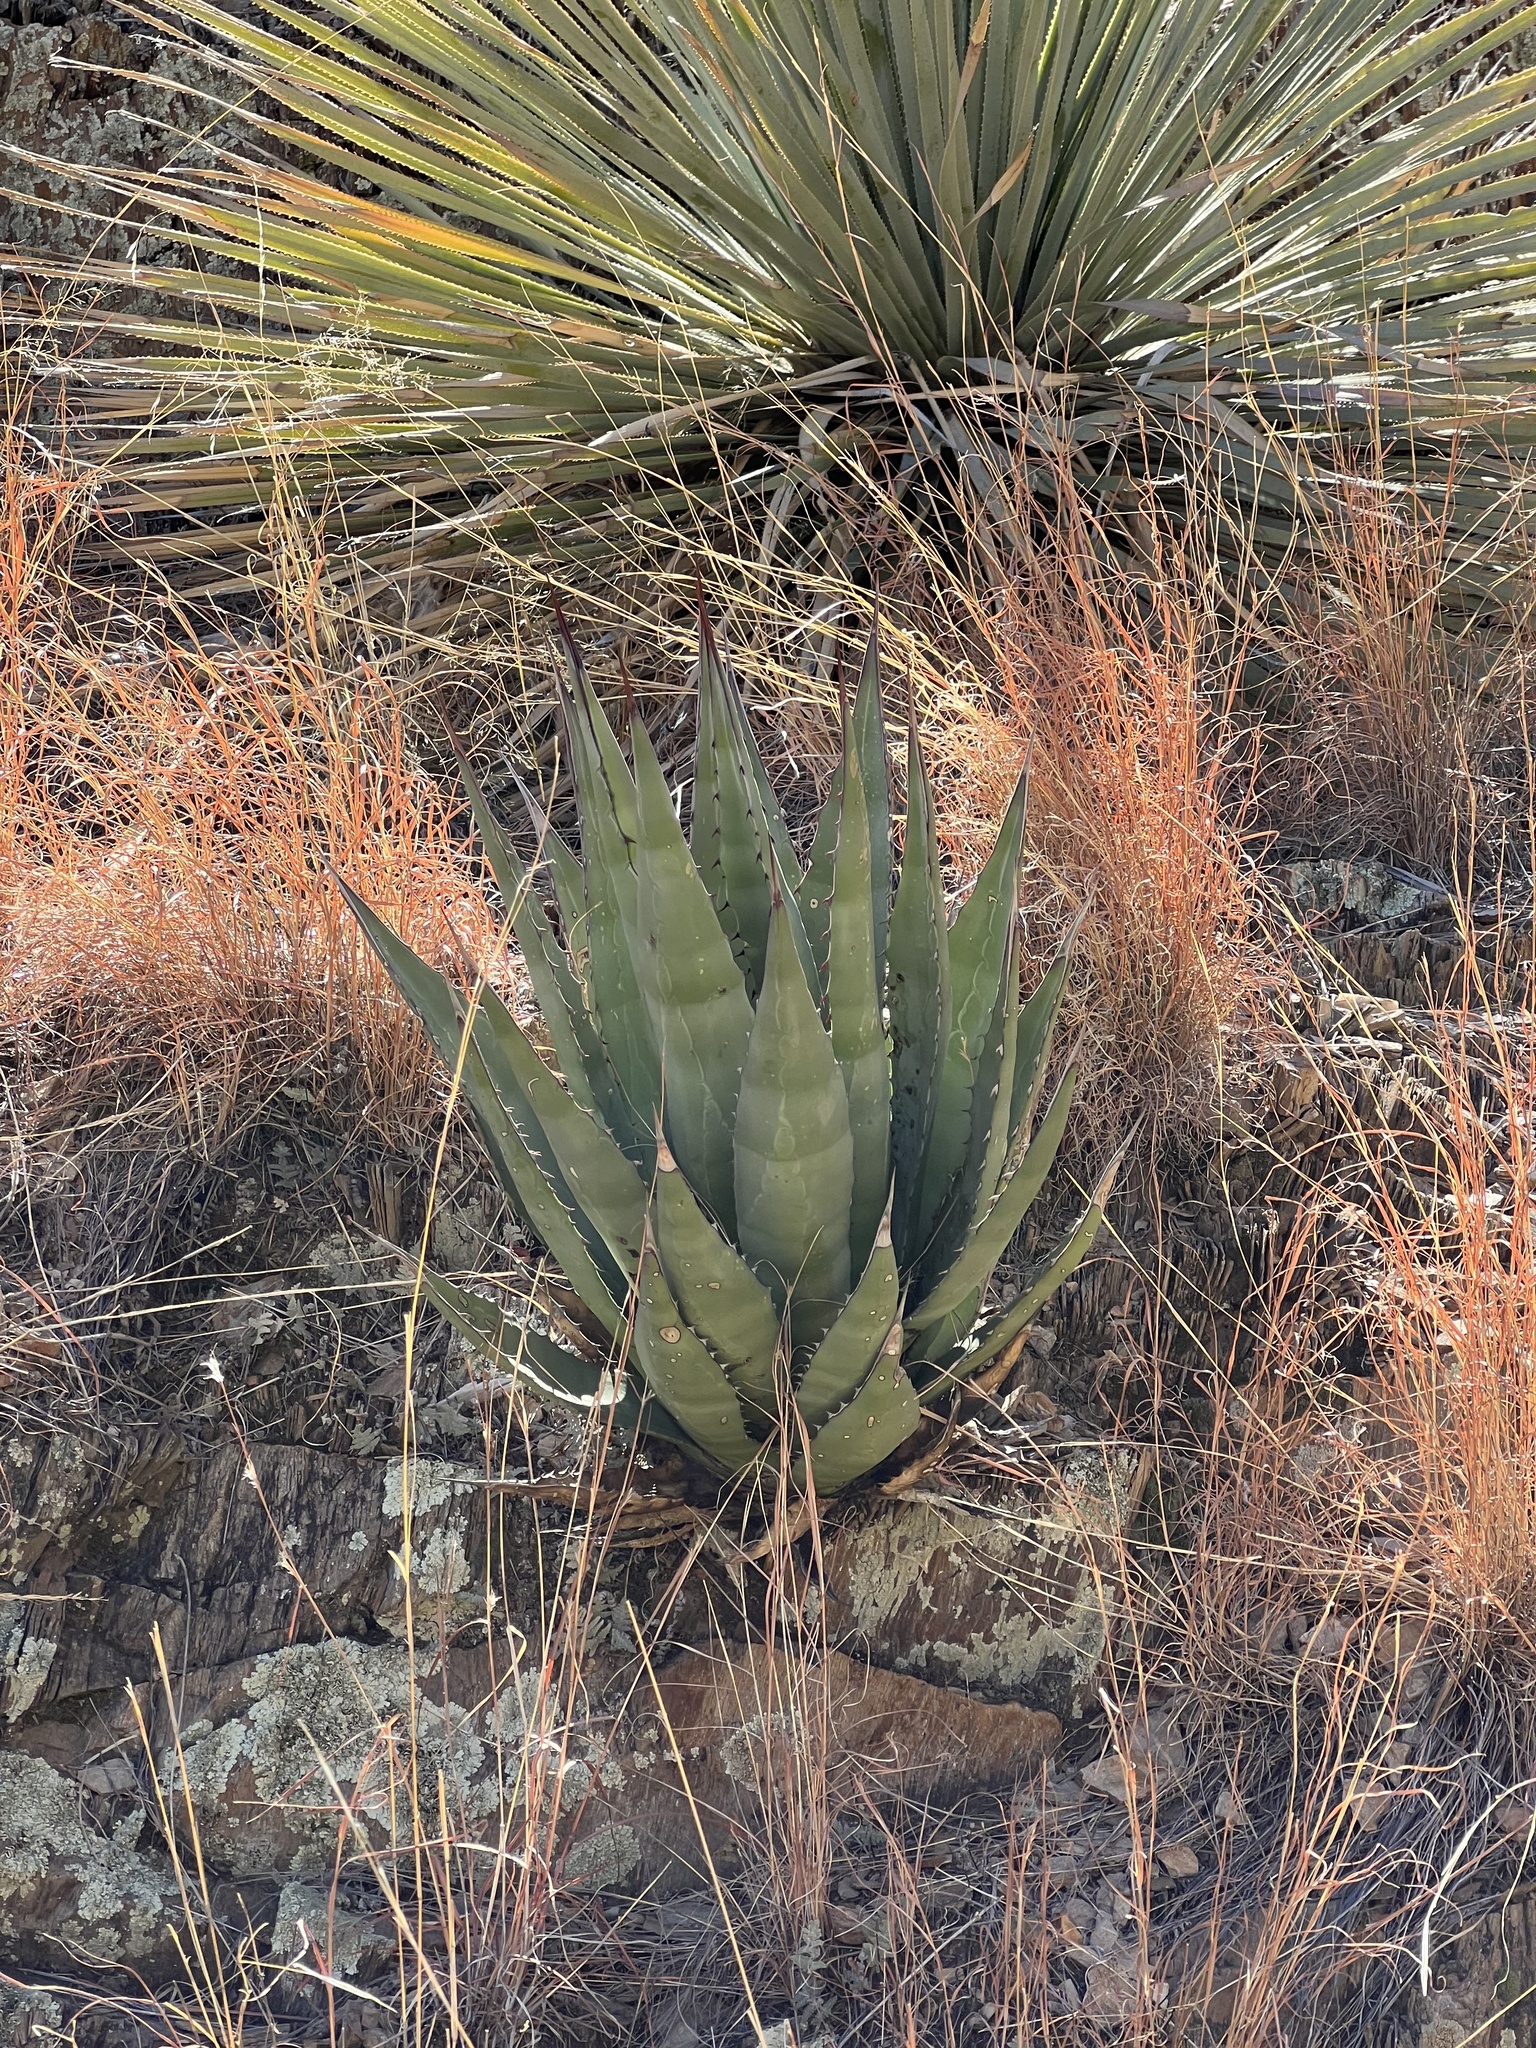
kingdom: Plantae
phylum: Tracheophyta
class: Liliopsida
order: Asparagales
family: Asparagaceae
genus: Agave
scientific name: Agave palmeri
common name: Palmer agave
